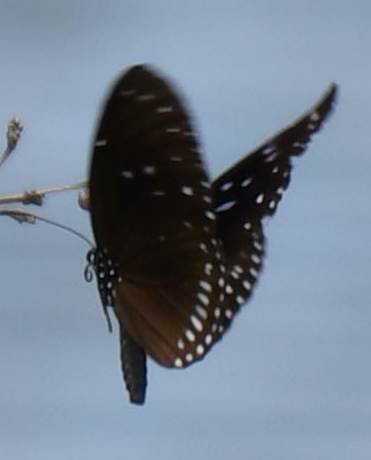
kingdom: Animalia
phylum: Arthropoda
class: Insecta
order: Lepidoptera
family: Nymphalidae
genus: Euploea
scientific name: Euploea midamus
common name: Blue-spotted crow butterfly
